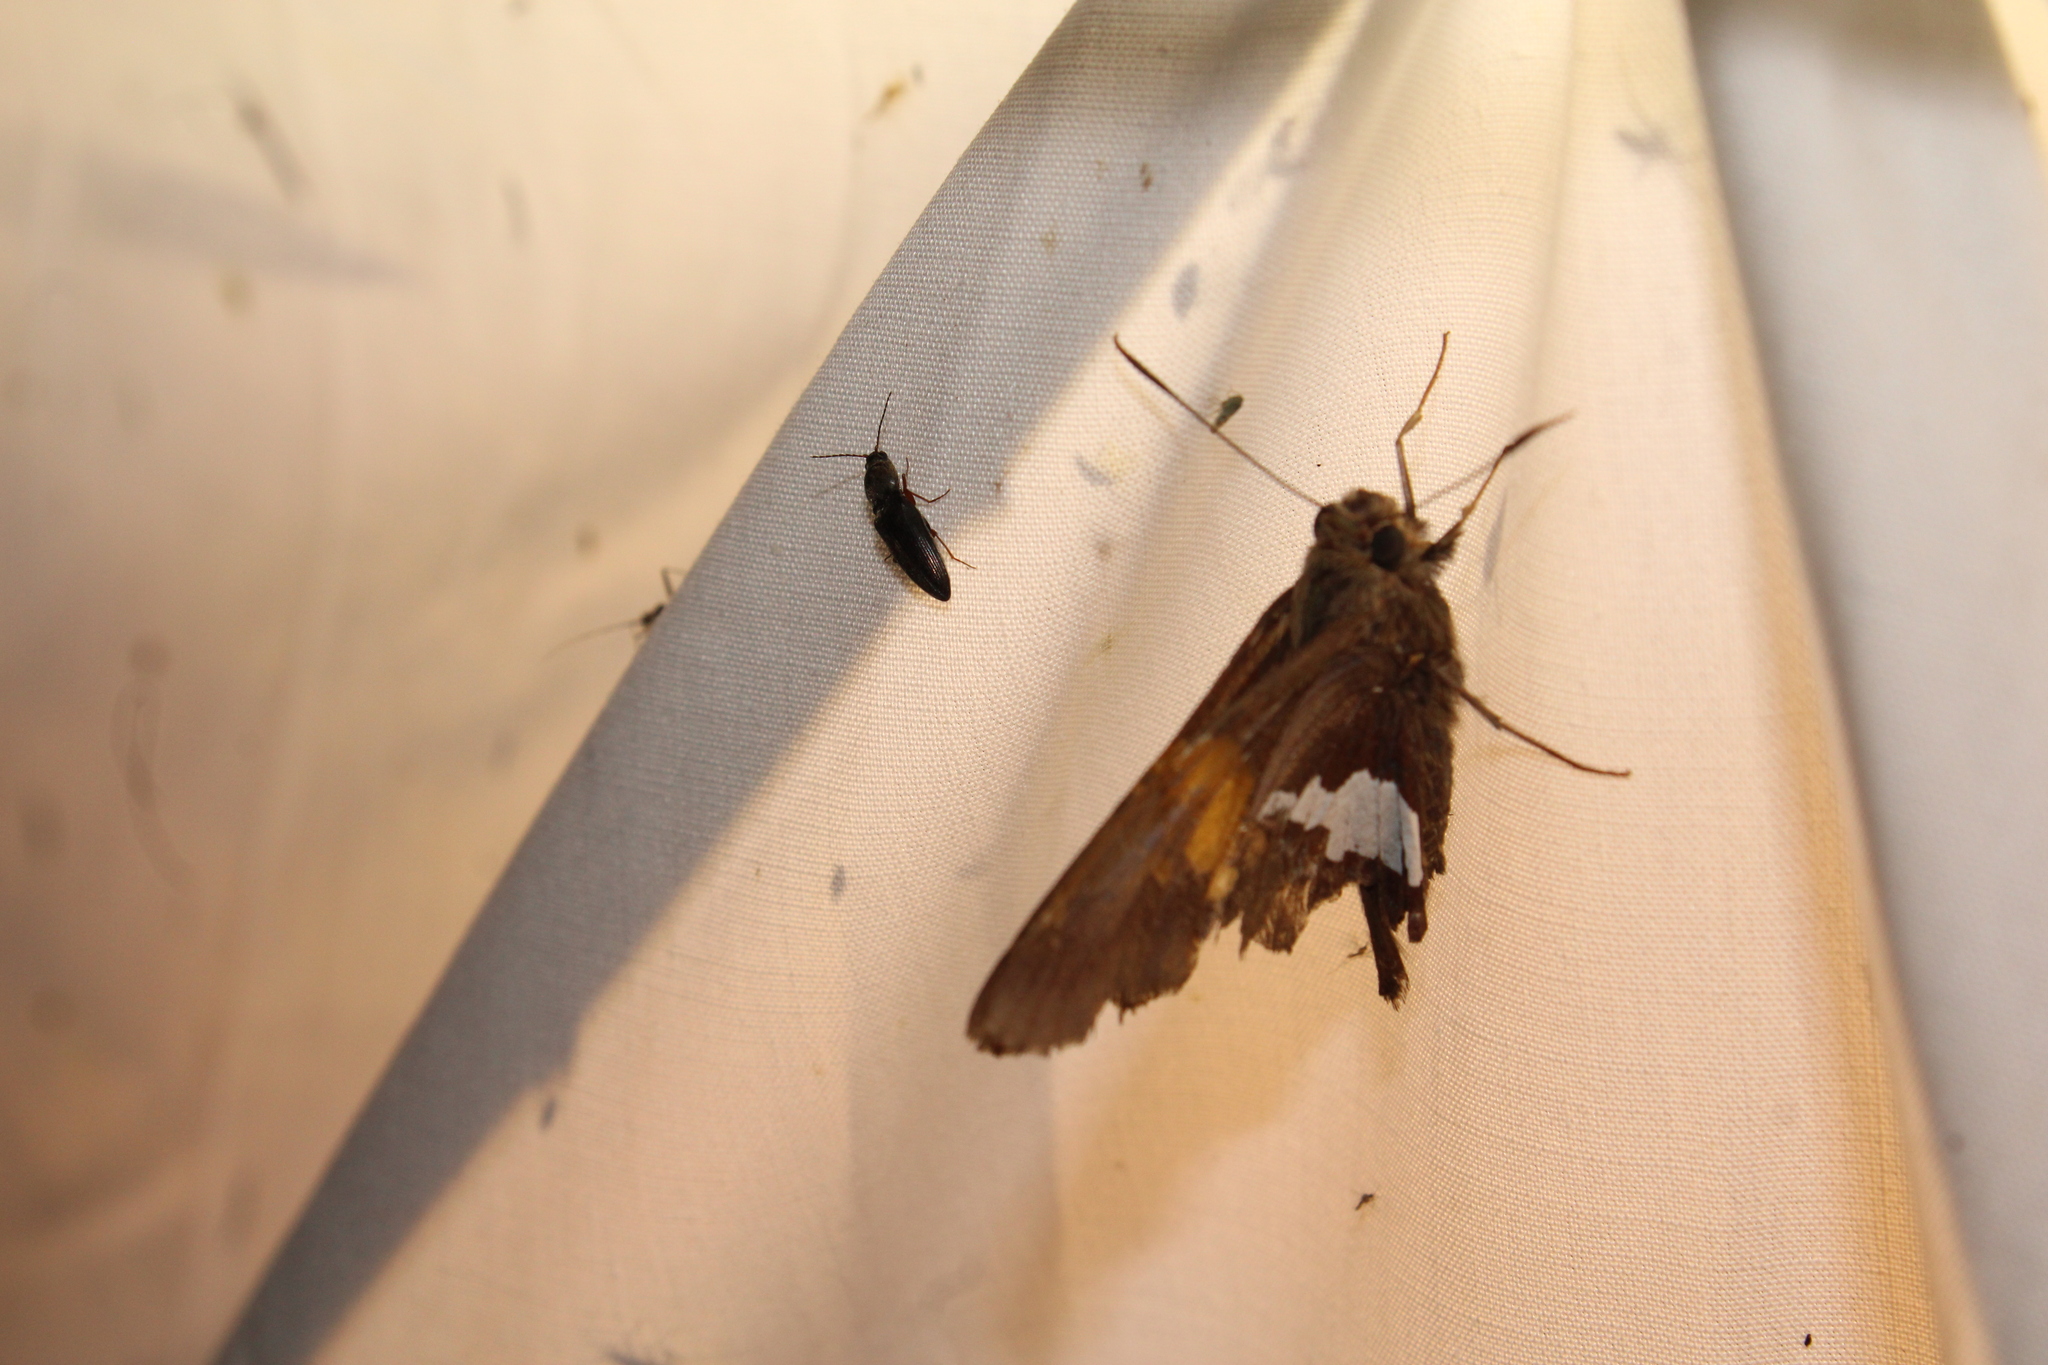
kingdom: Animalia
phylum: Arthropoda
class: Insecta
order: Lepidoptera
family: Hesperiidae
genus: Epargyreus
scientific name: Epargyreus clarus
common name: Silver-spotted skipper
